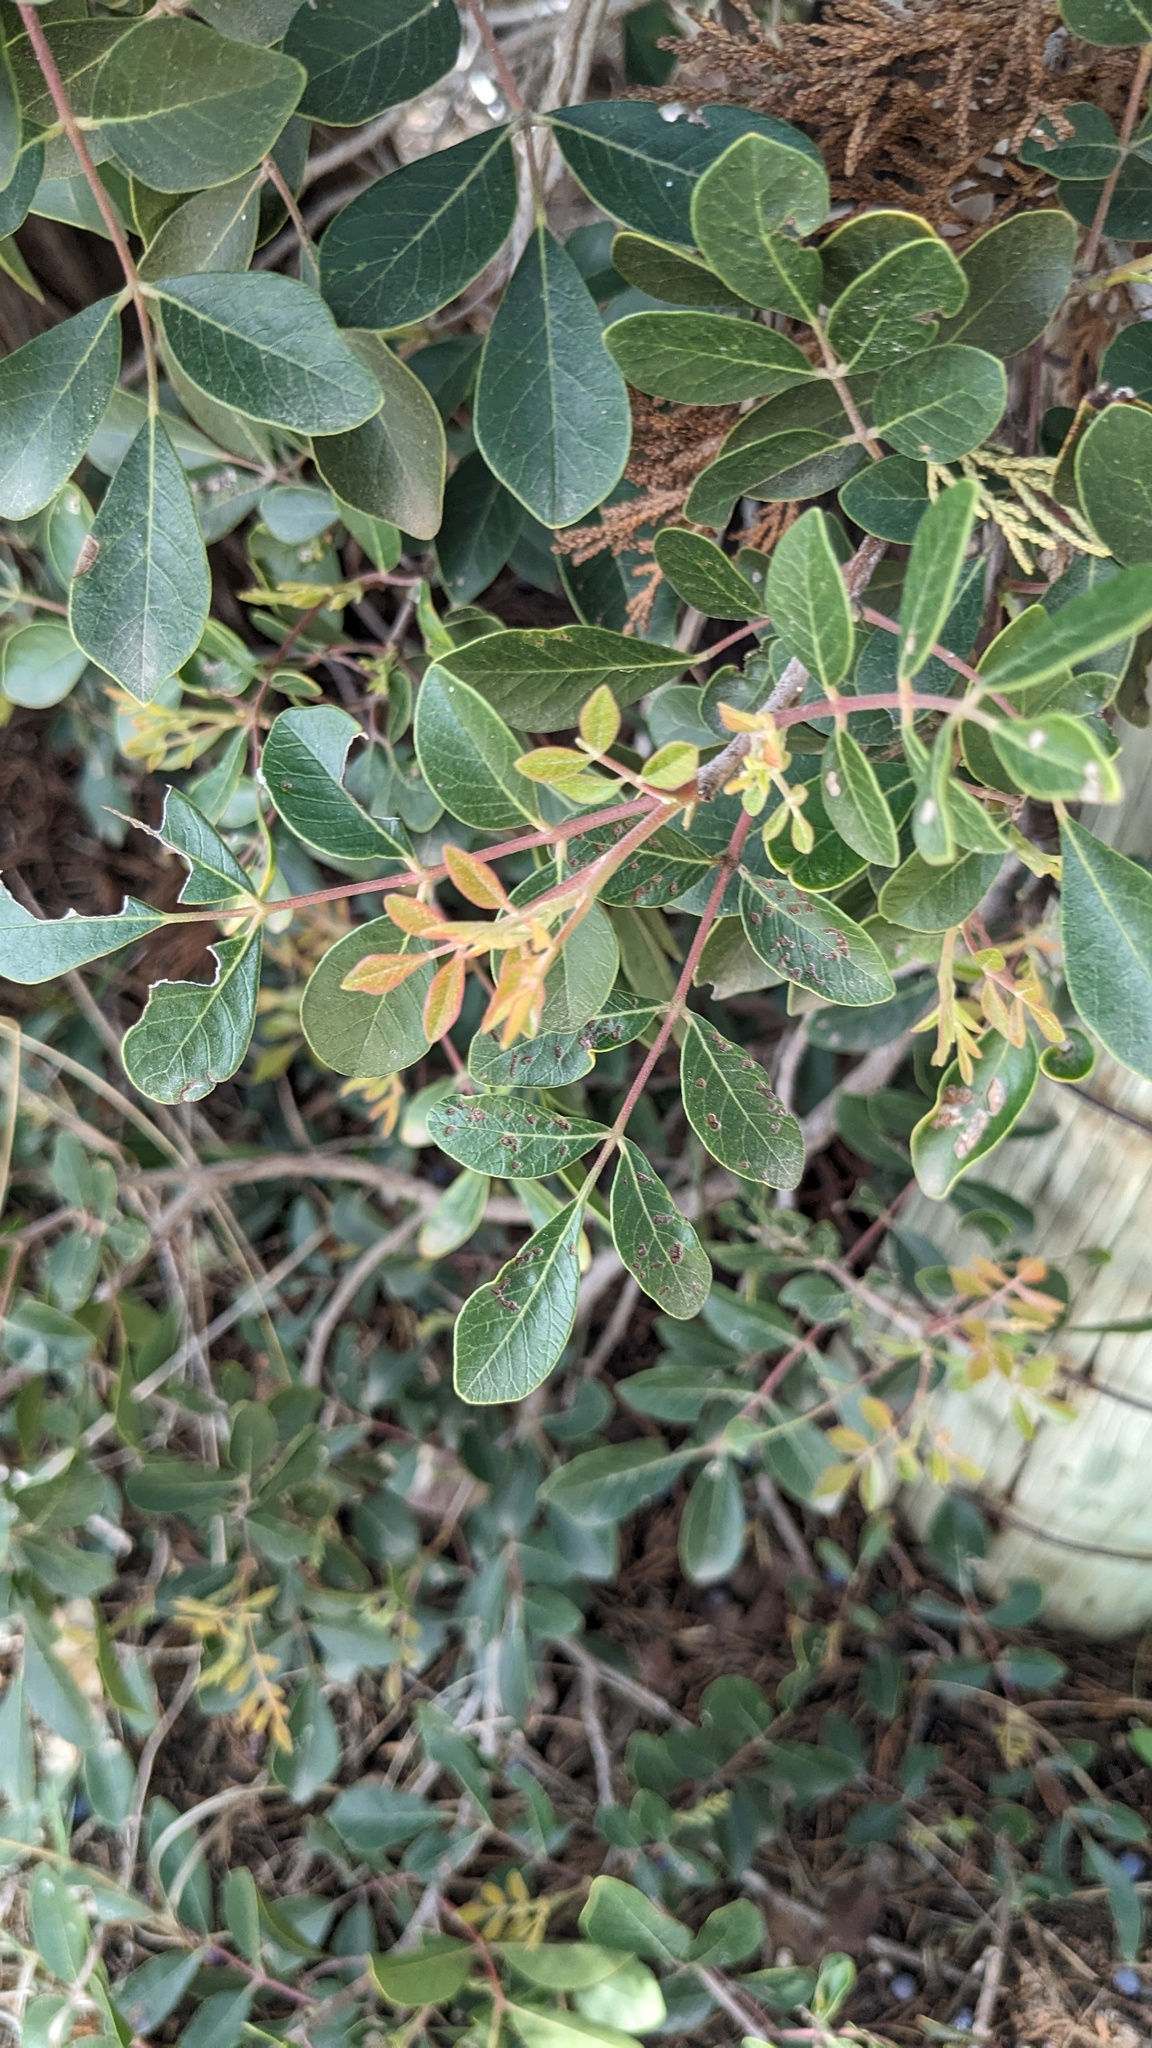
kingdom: Plantae
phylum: Tracheophyta
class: Magnoliopsida
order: Sapindales
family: Anacardiaceae
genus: Rhus
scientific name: Rhus virens
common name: Evergreen sumac
